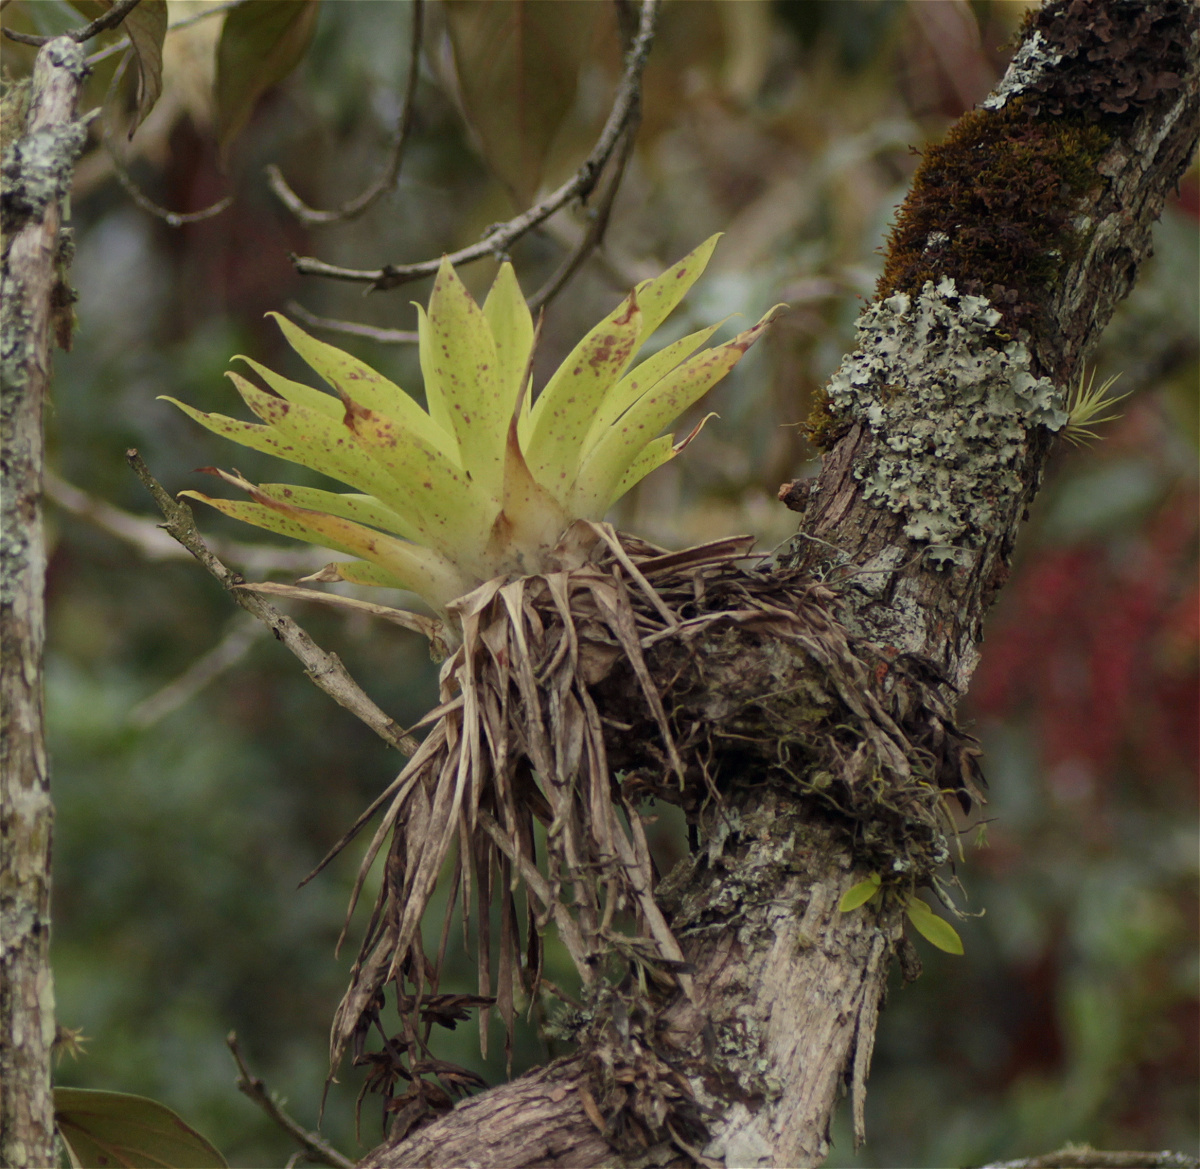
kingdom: Plantae
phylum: Tracheophyta
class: Liliopsida
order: Poales
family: Bromeliaceae
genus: Tillandsia
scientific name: Tillandsia biflora
